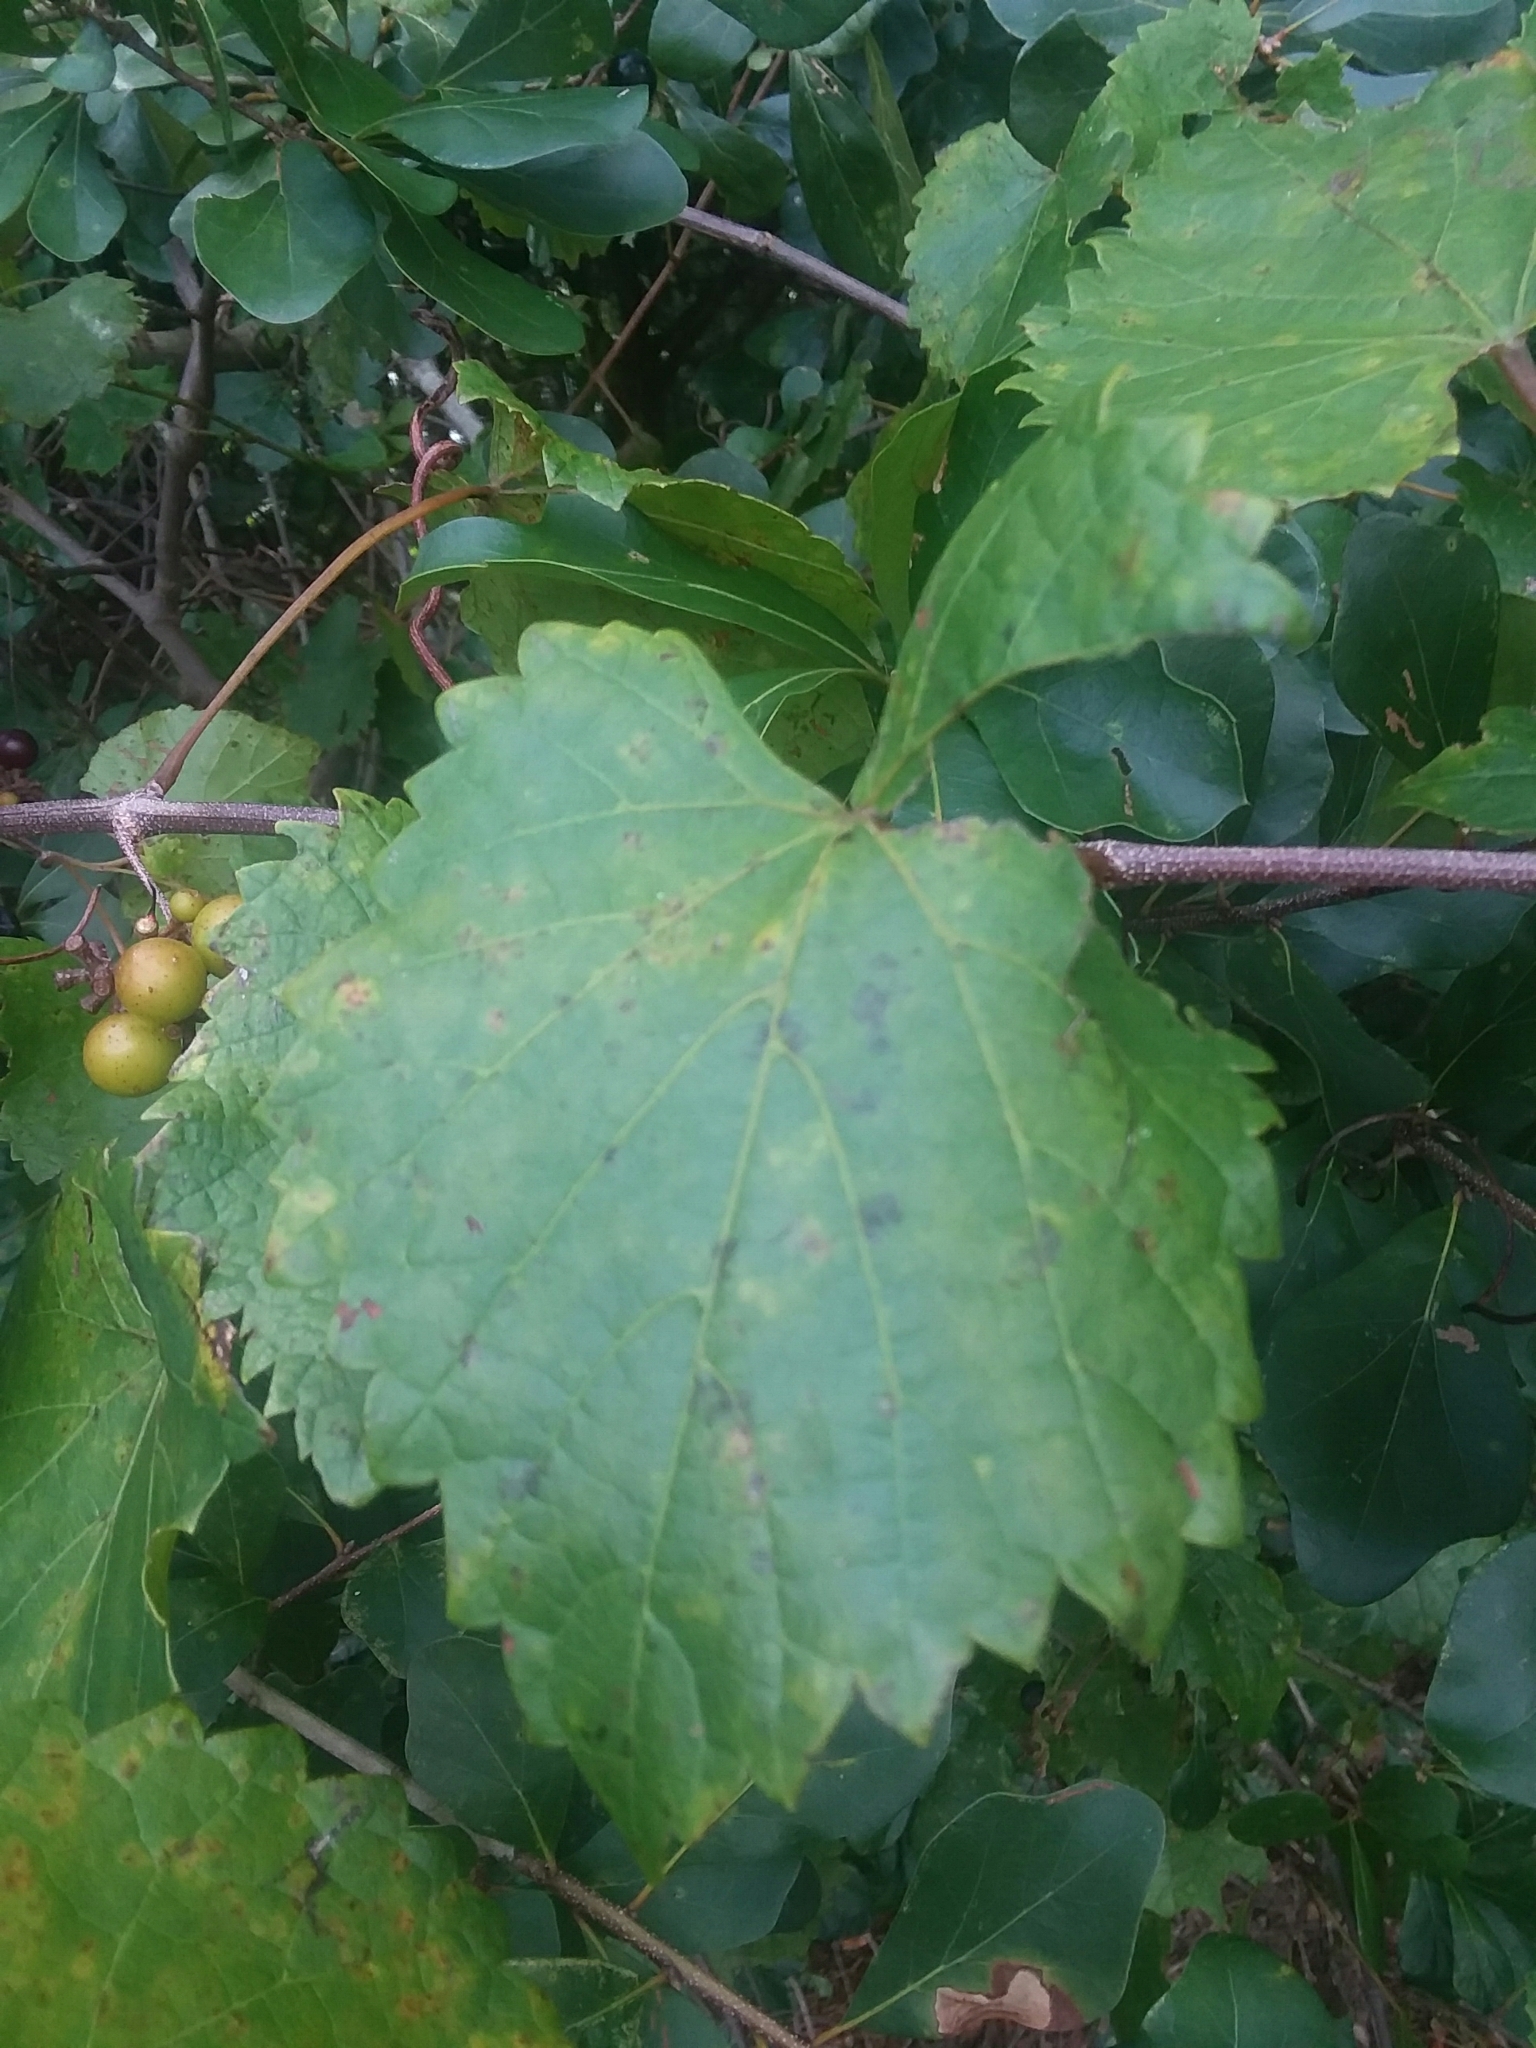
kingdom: Plantae
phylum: Tracheophyta
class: Magnoliopsida
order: Vitales
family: Vitaceae
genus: Vitis
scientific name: Vitis rotundifolia
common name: Muscadine grape
